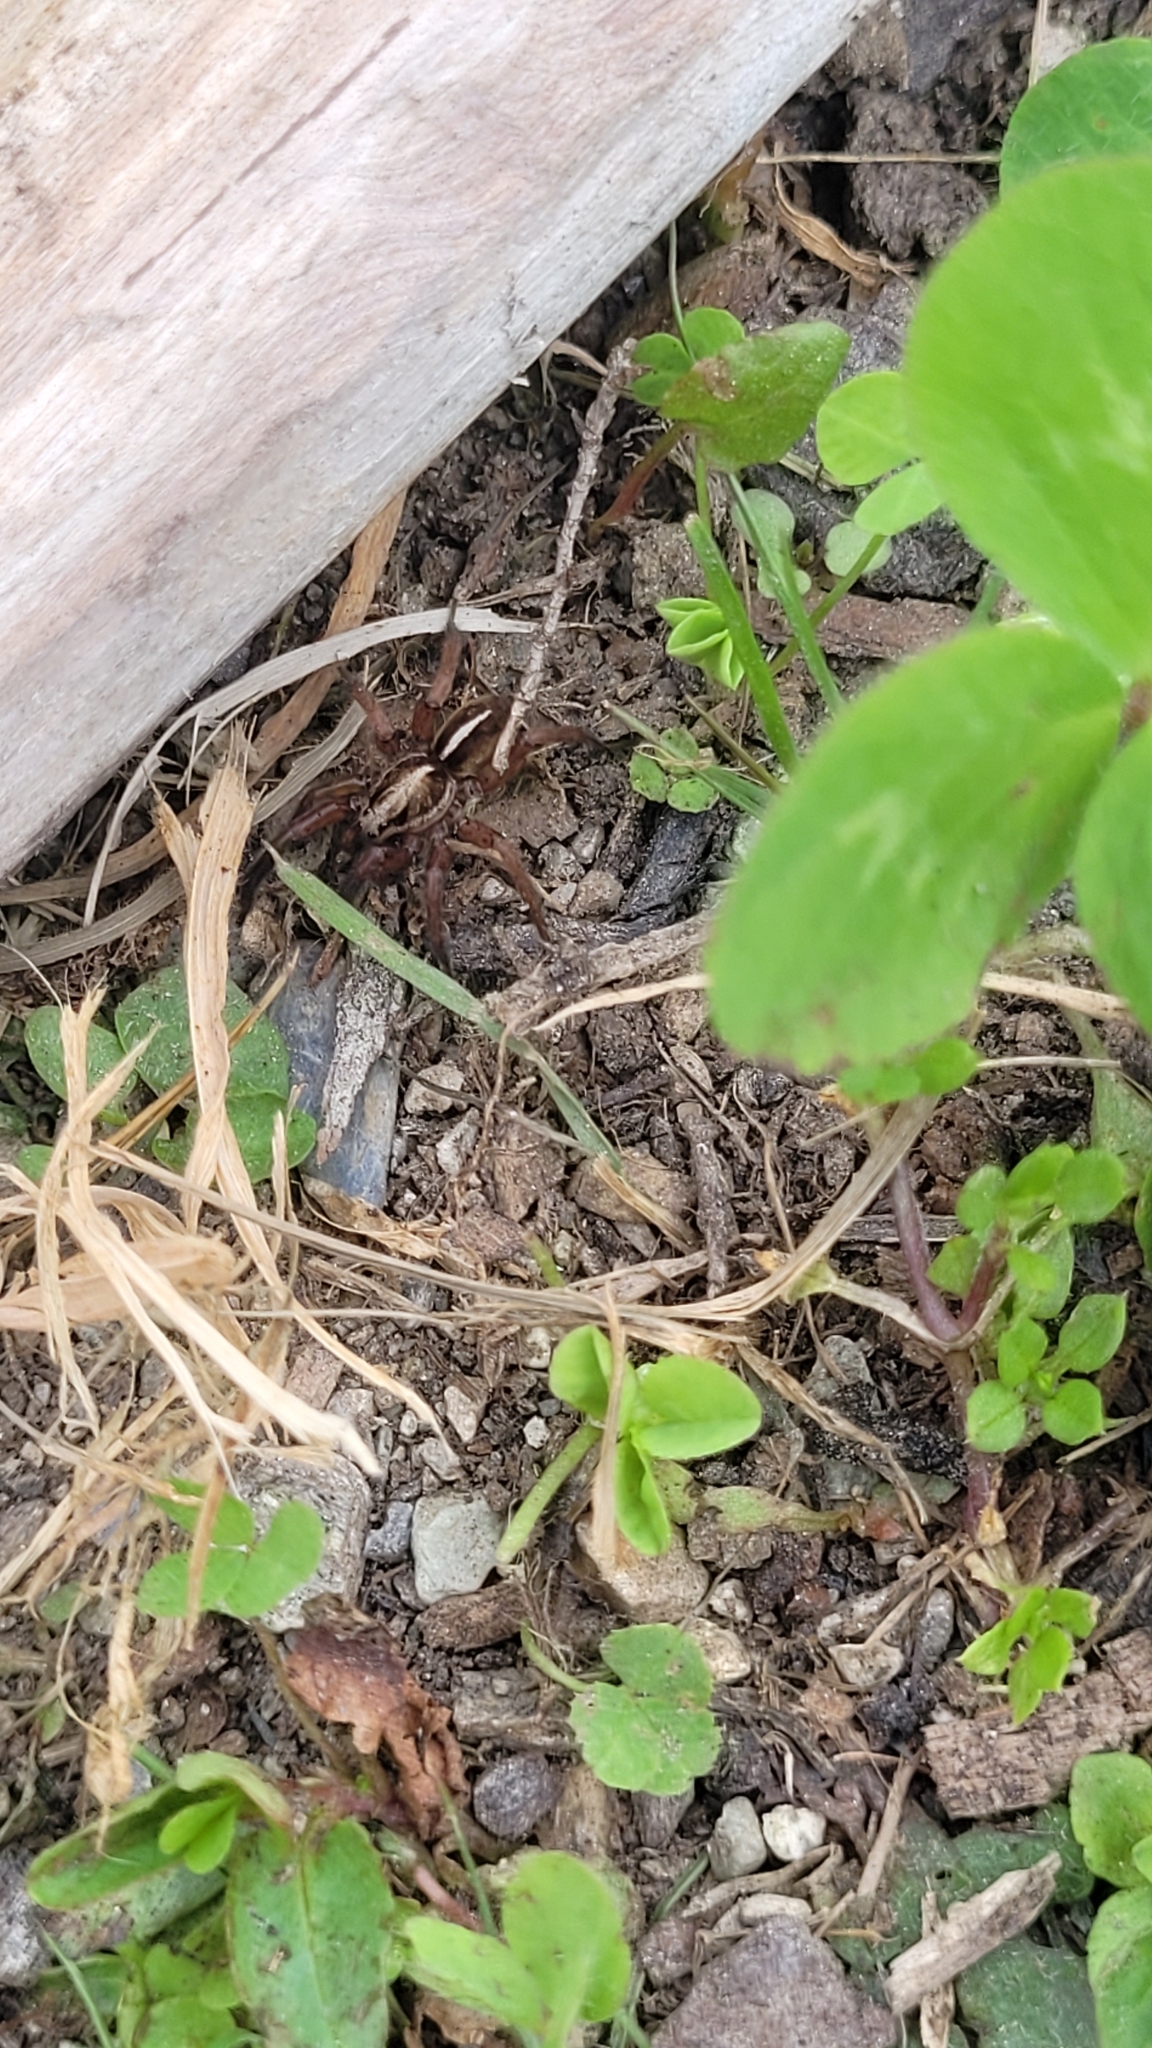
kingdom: Animalia
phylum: Arthropoda
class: Arachnida
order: Araneae
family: Lycosidae
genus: Anoteropsis
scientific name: Anoteropsis hilaris
